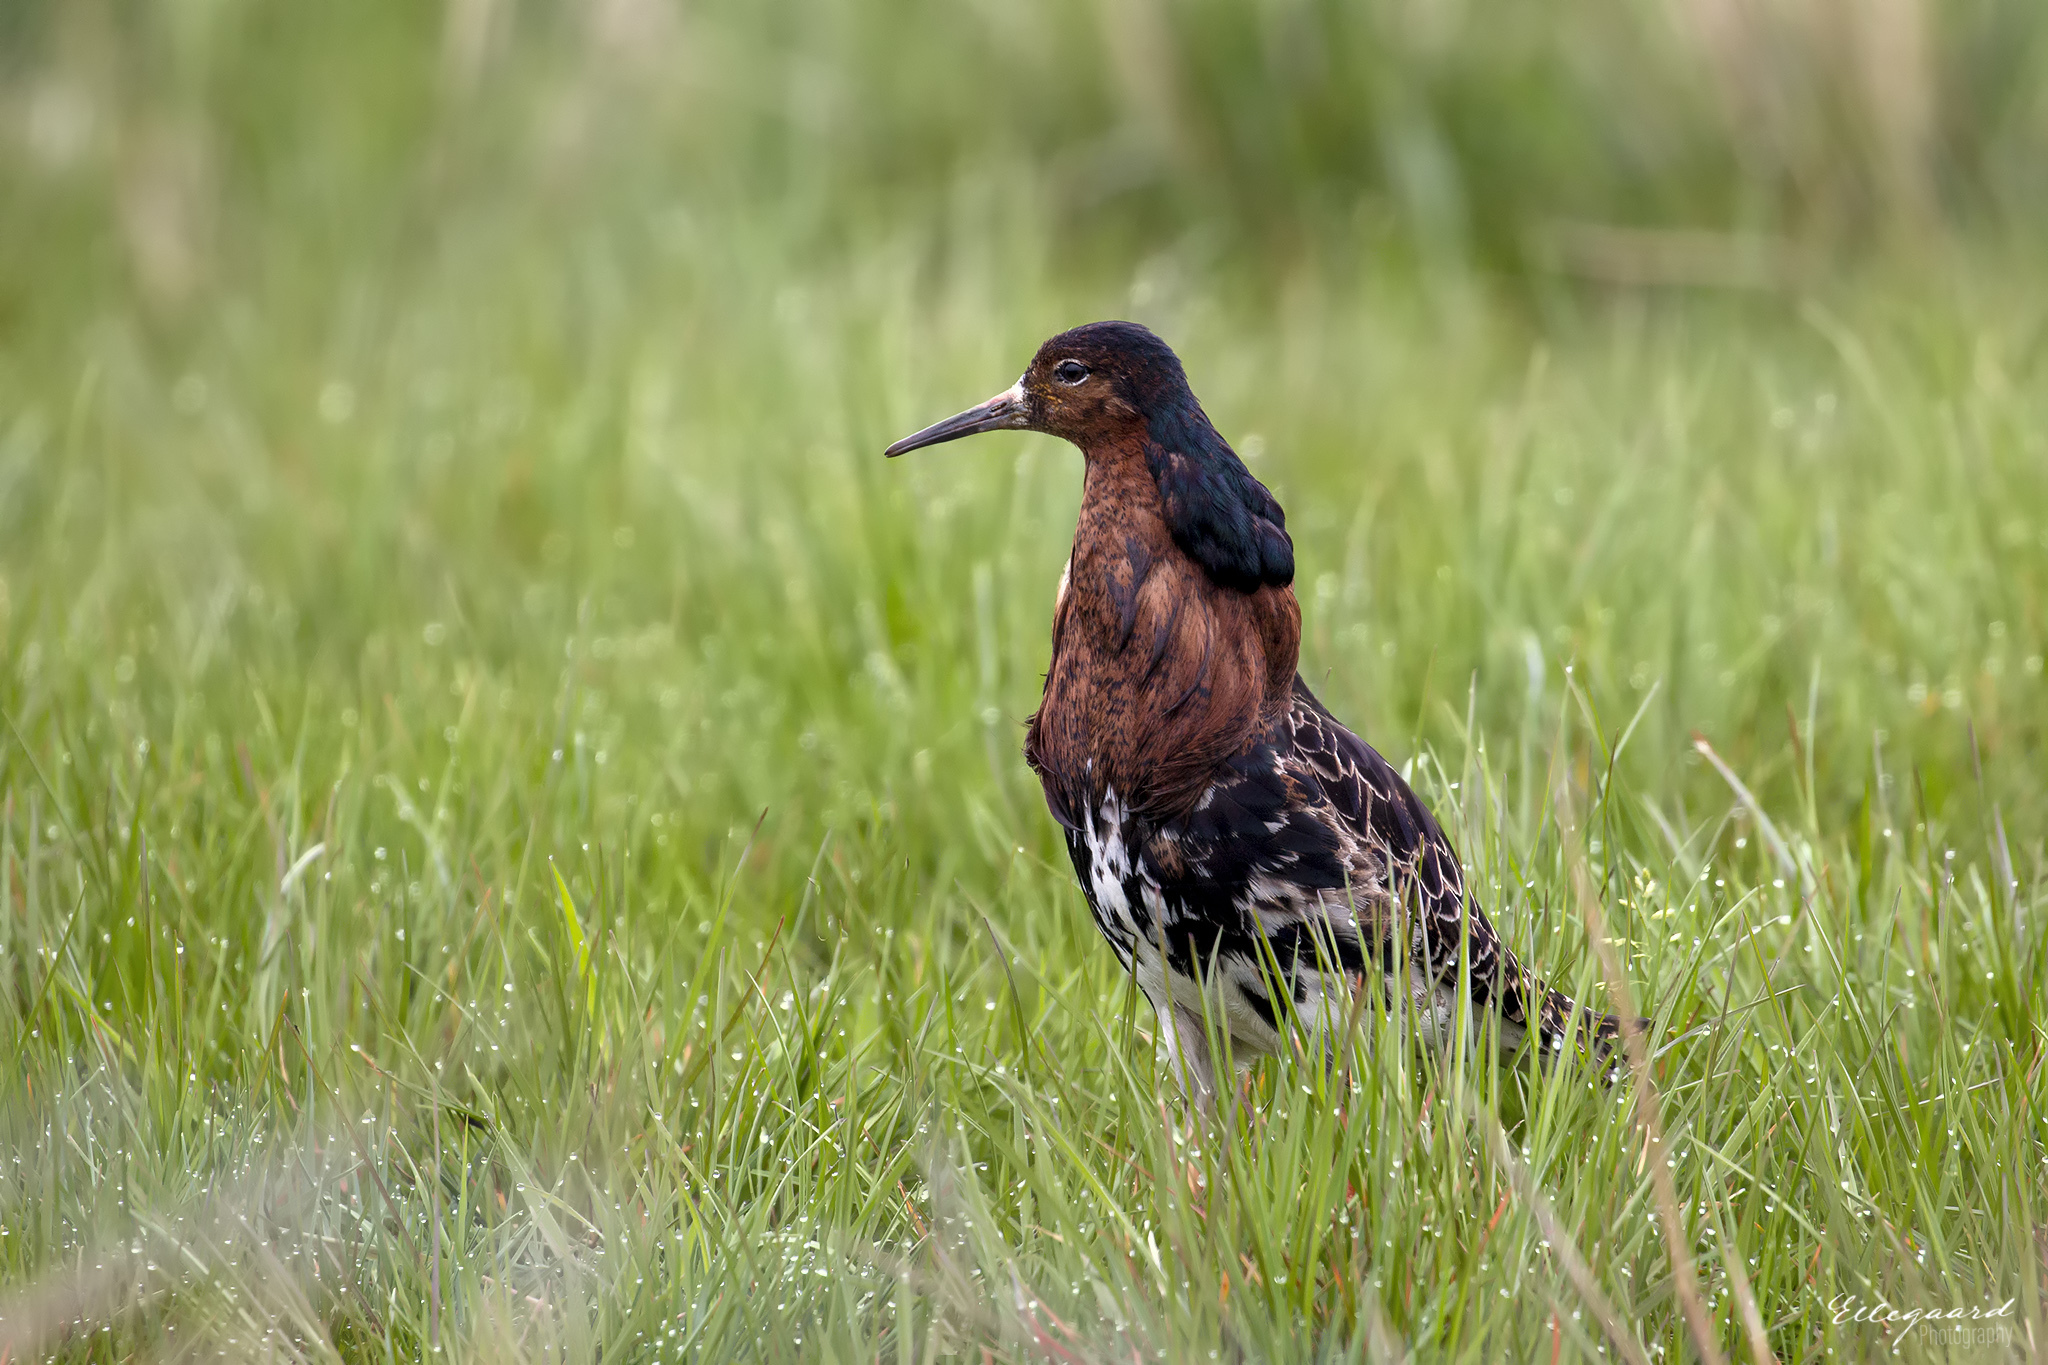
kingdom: Animalia
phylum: Chordata
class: Aves
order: Charadriiformes
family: Scolopacidae
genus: Calidris
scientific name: Calidris pugnax
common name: Ruff
